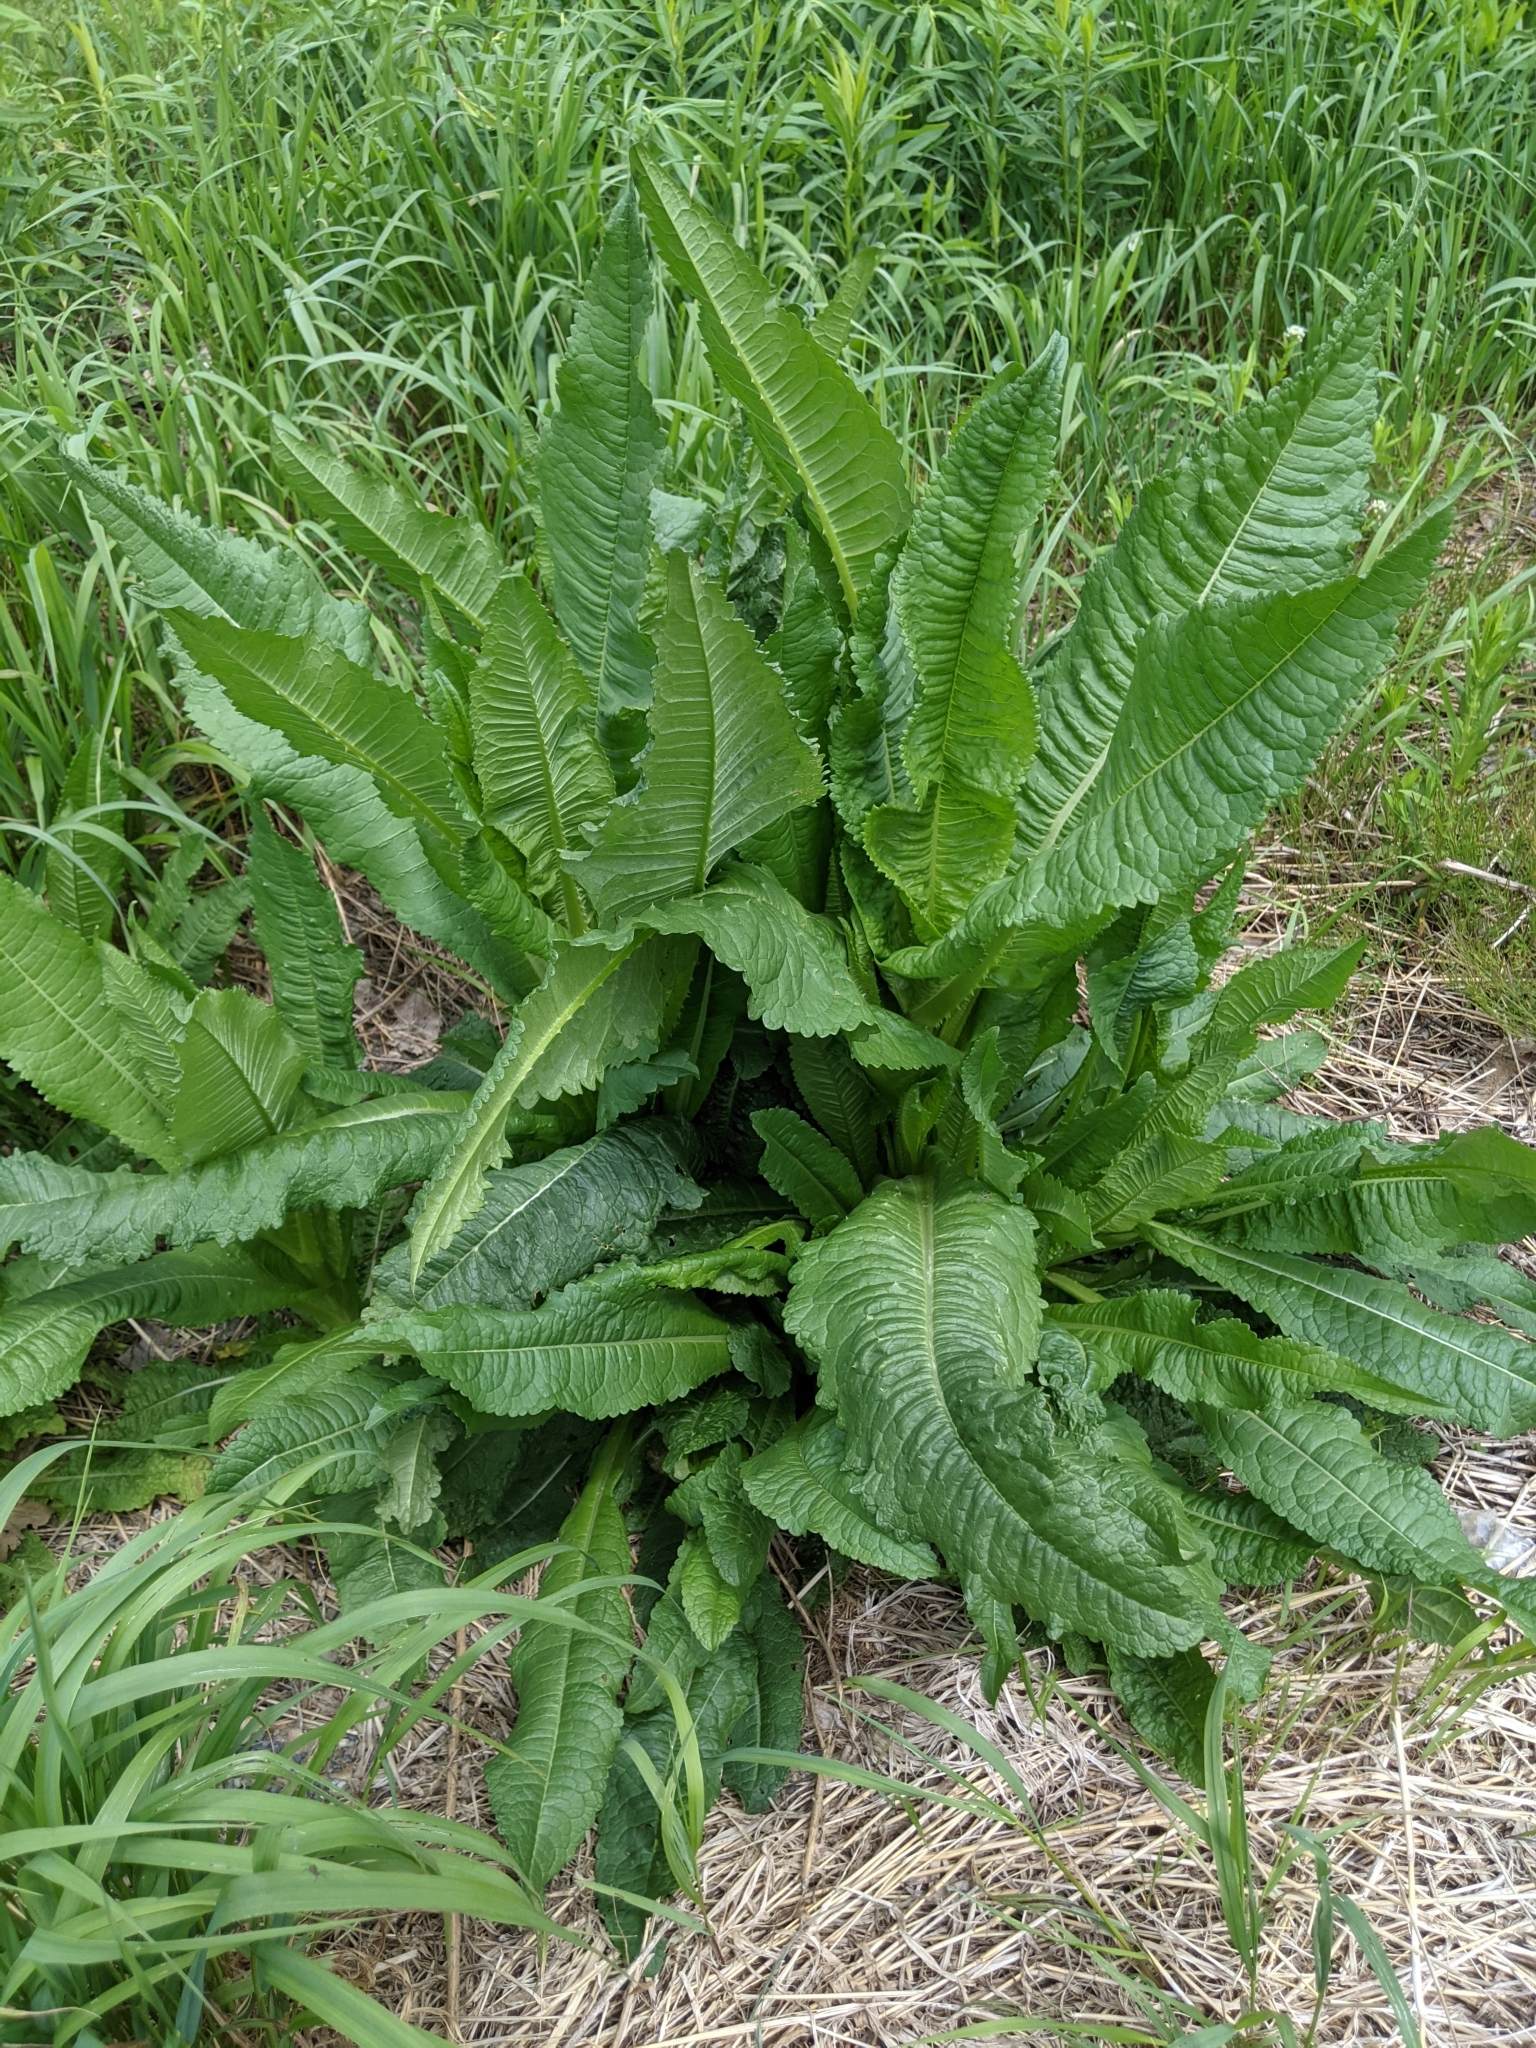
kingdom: Plantae
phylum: Tracheophyta
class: Magnoliopsida
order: Dipsacales
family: Caprifoliaceae
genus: Dipsacus
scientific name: Dipsacus fullonum
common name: Teasel
